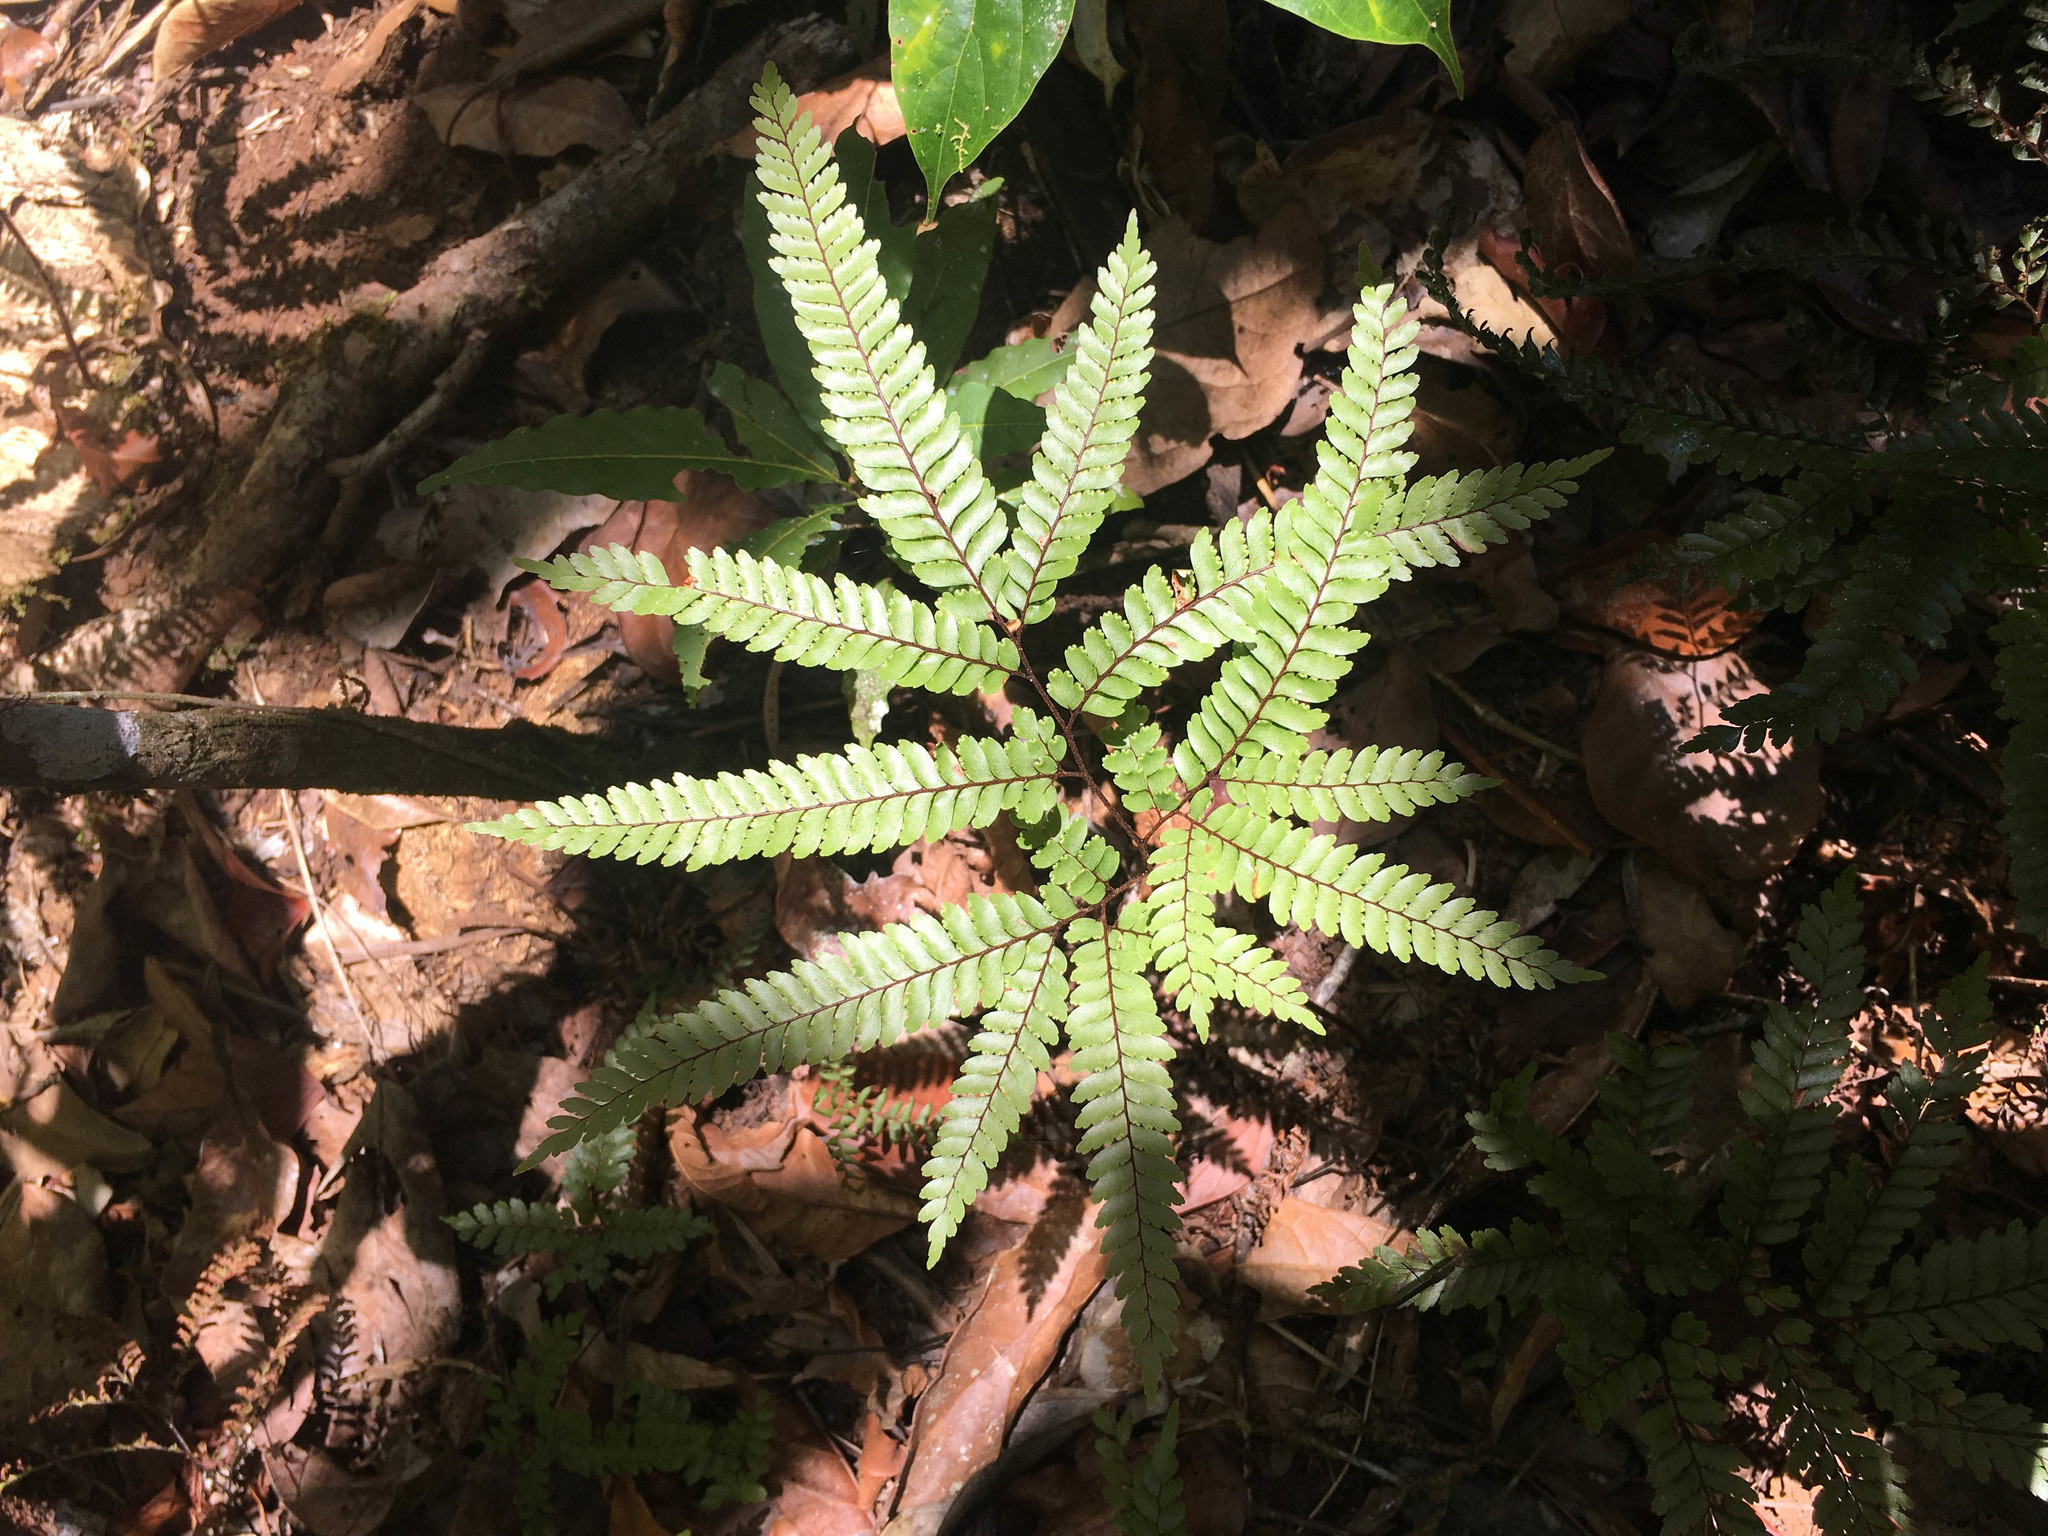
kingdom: Plantae
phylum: Tracheophyta
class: Polypodiopsida
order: Polypodiales
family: Pteridaceae
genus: Adiantum
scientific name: Adiantum novae-caledoniae
